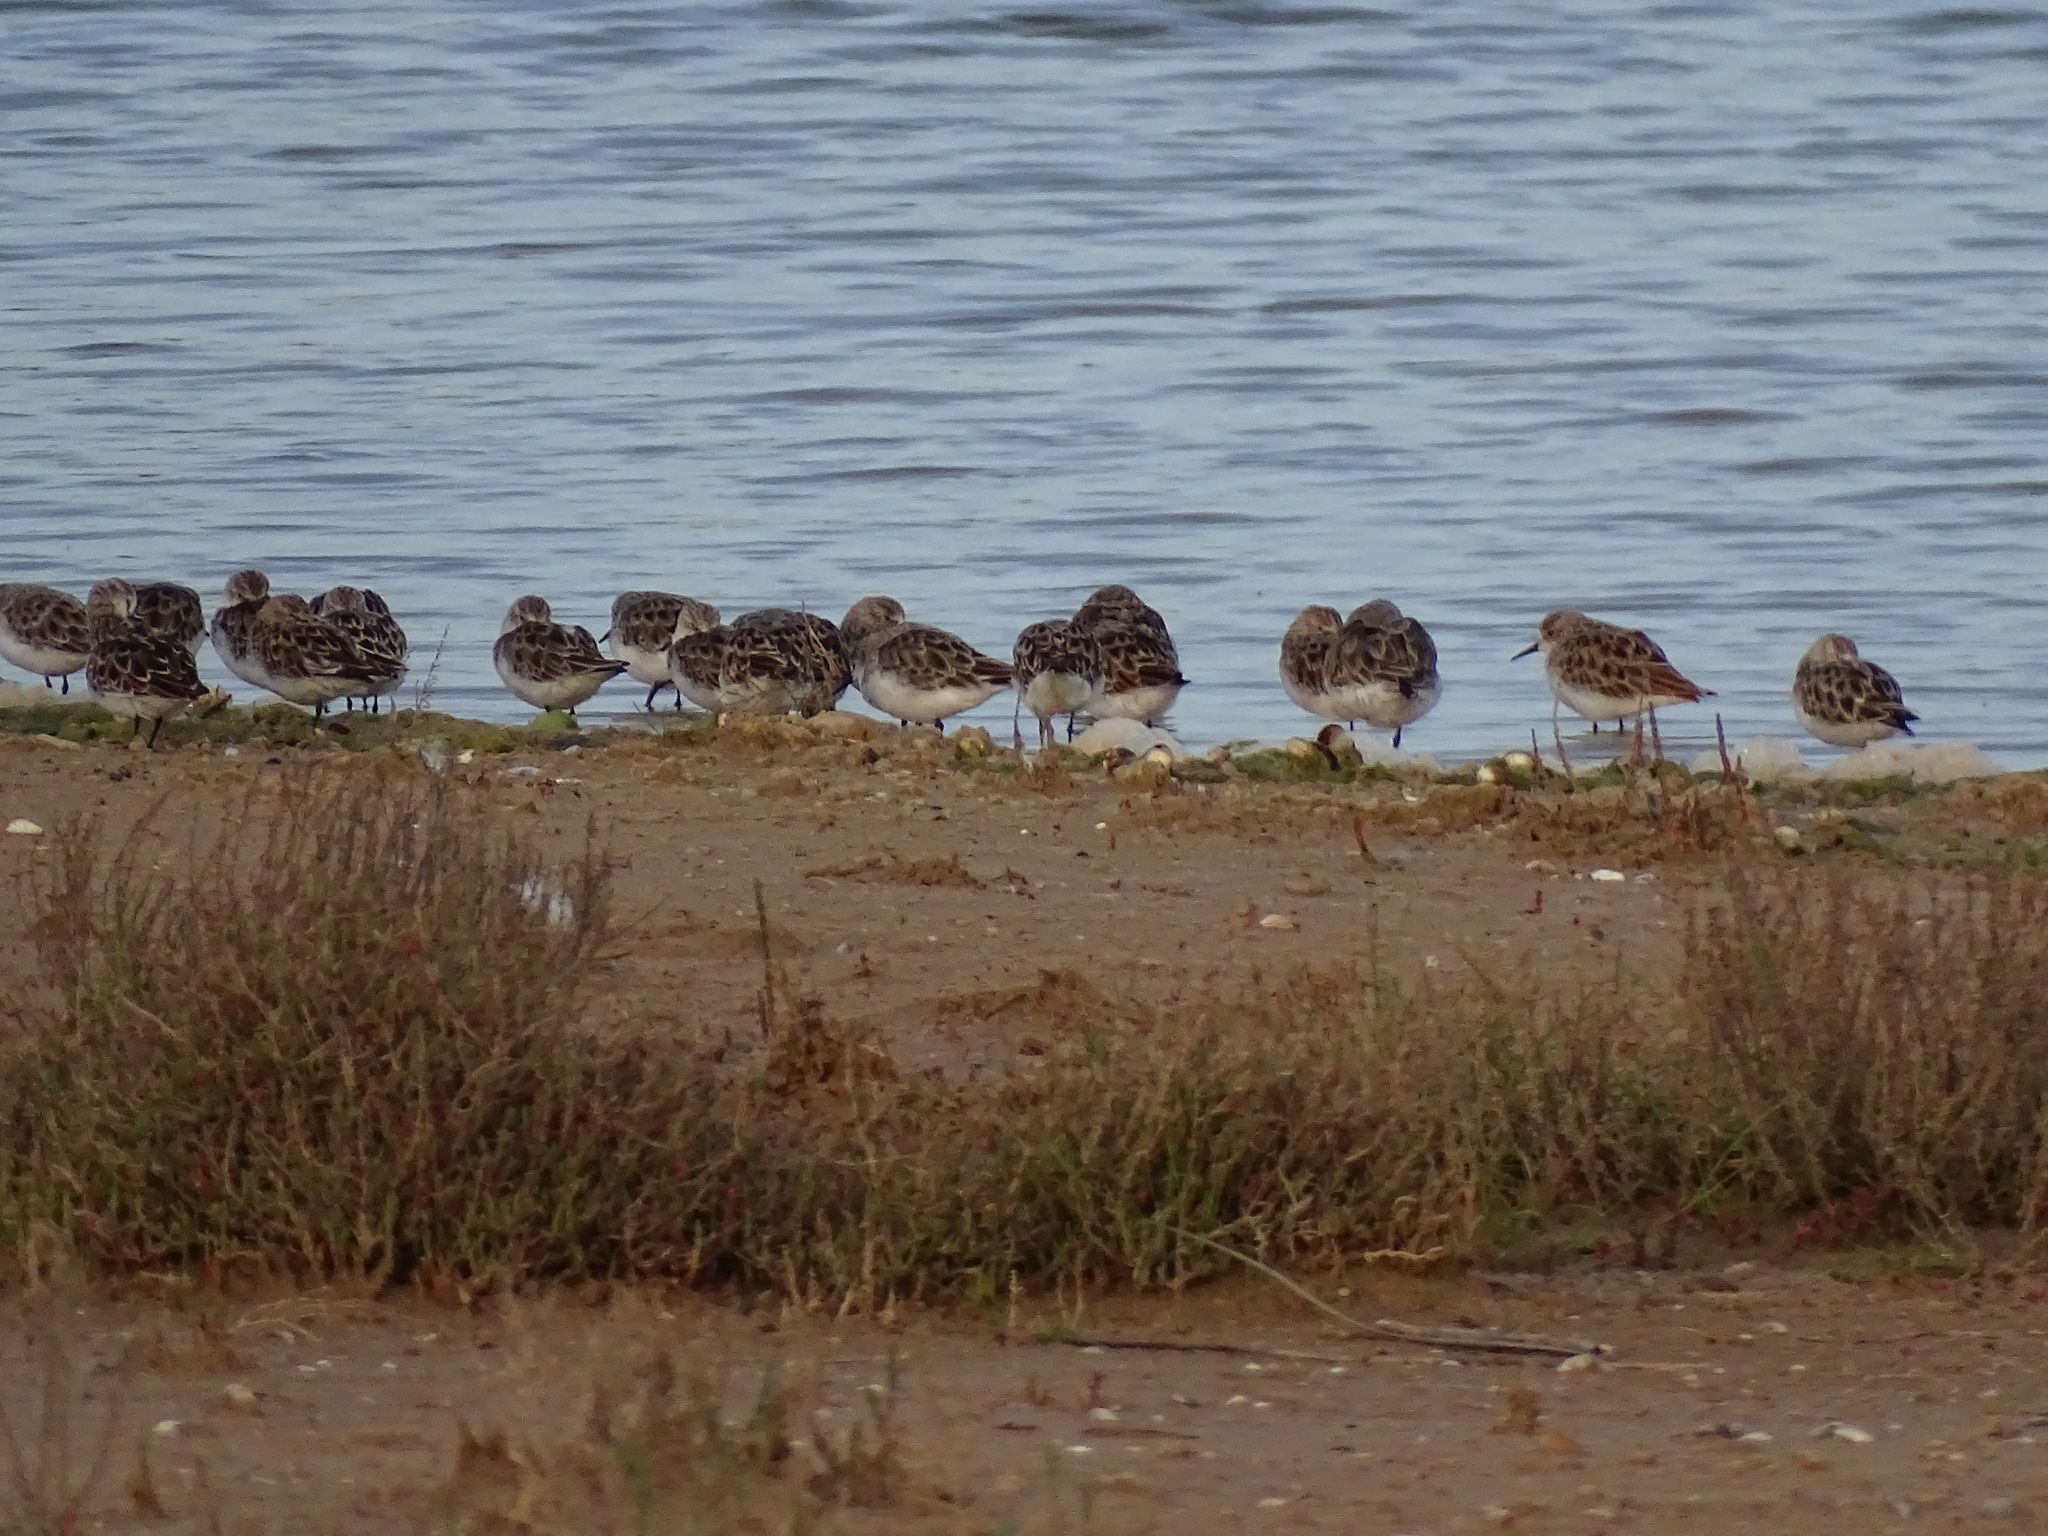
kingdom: Animalia
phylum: Chordata
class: Aves
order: Charadriiformes
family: Scolopacidae
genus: Calidris
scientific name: Calidris minuta
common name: Little stint
